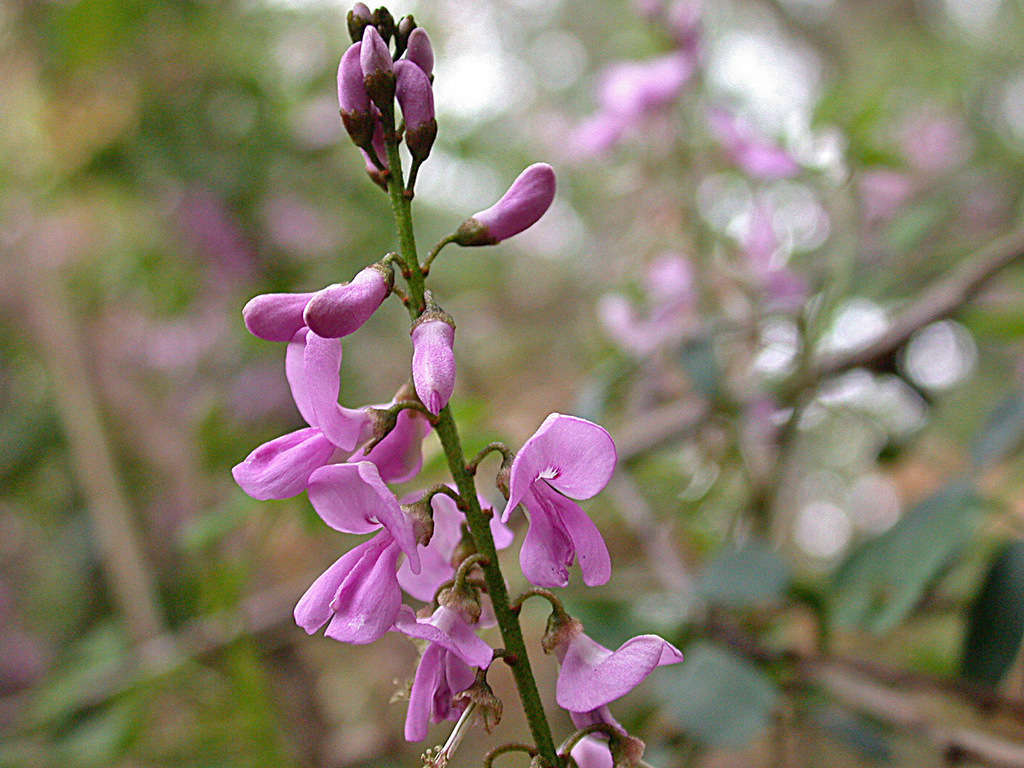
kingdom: Plantae
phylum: Tracheophyta
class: Magnoliopsida
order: Fabales
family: Fabaceae
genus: Indigofera
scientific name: Indigofera australis
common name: Australian indigo
